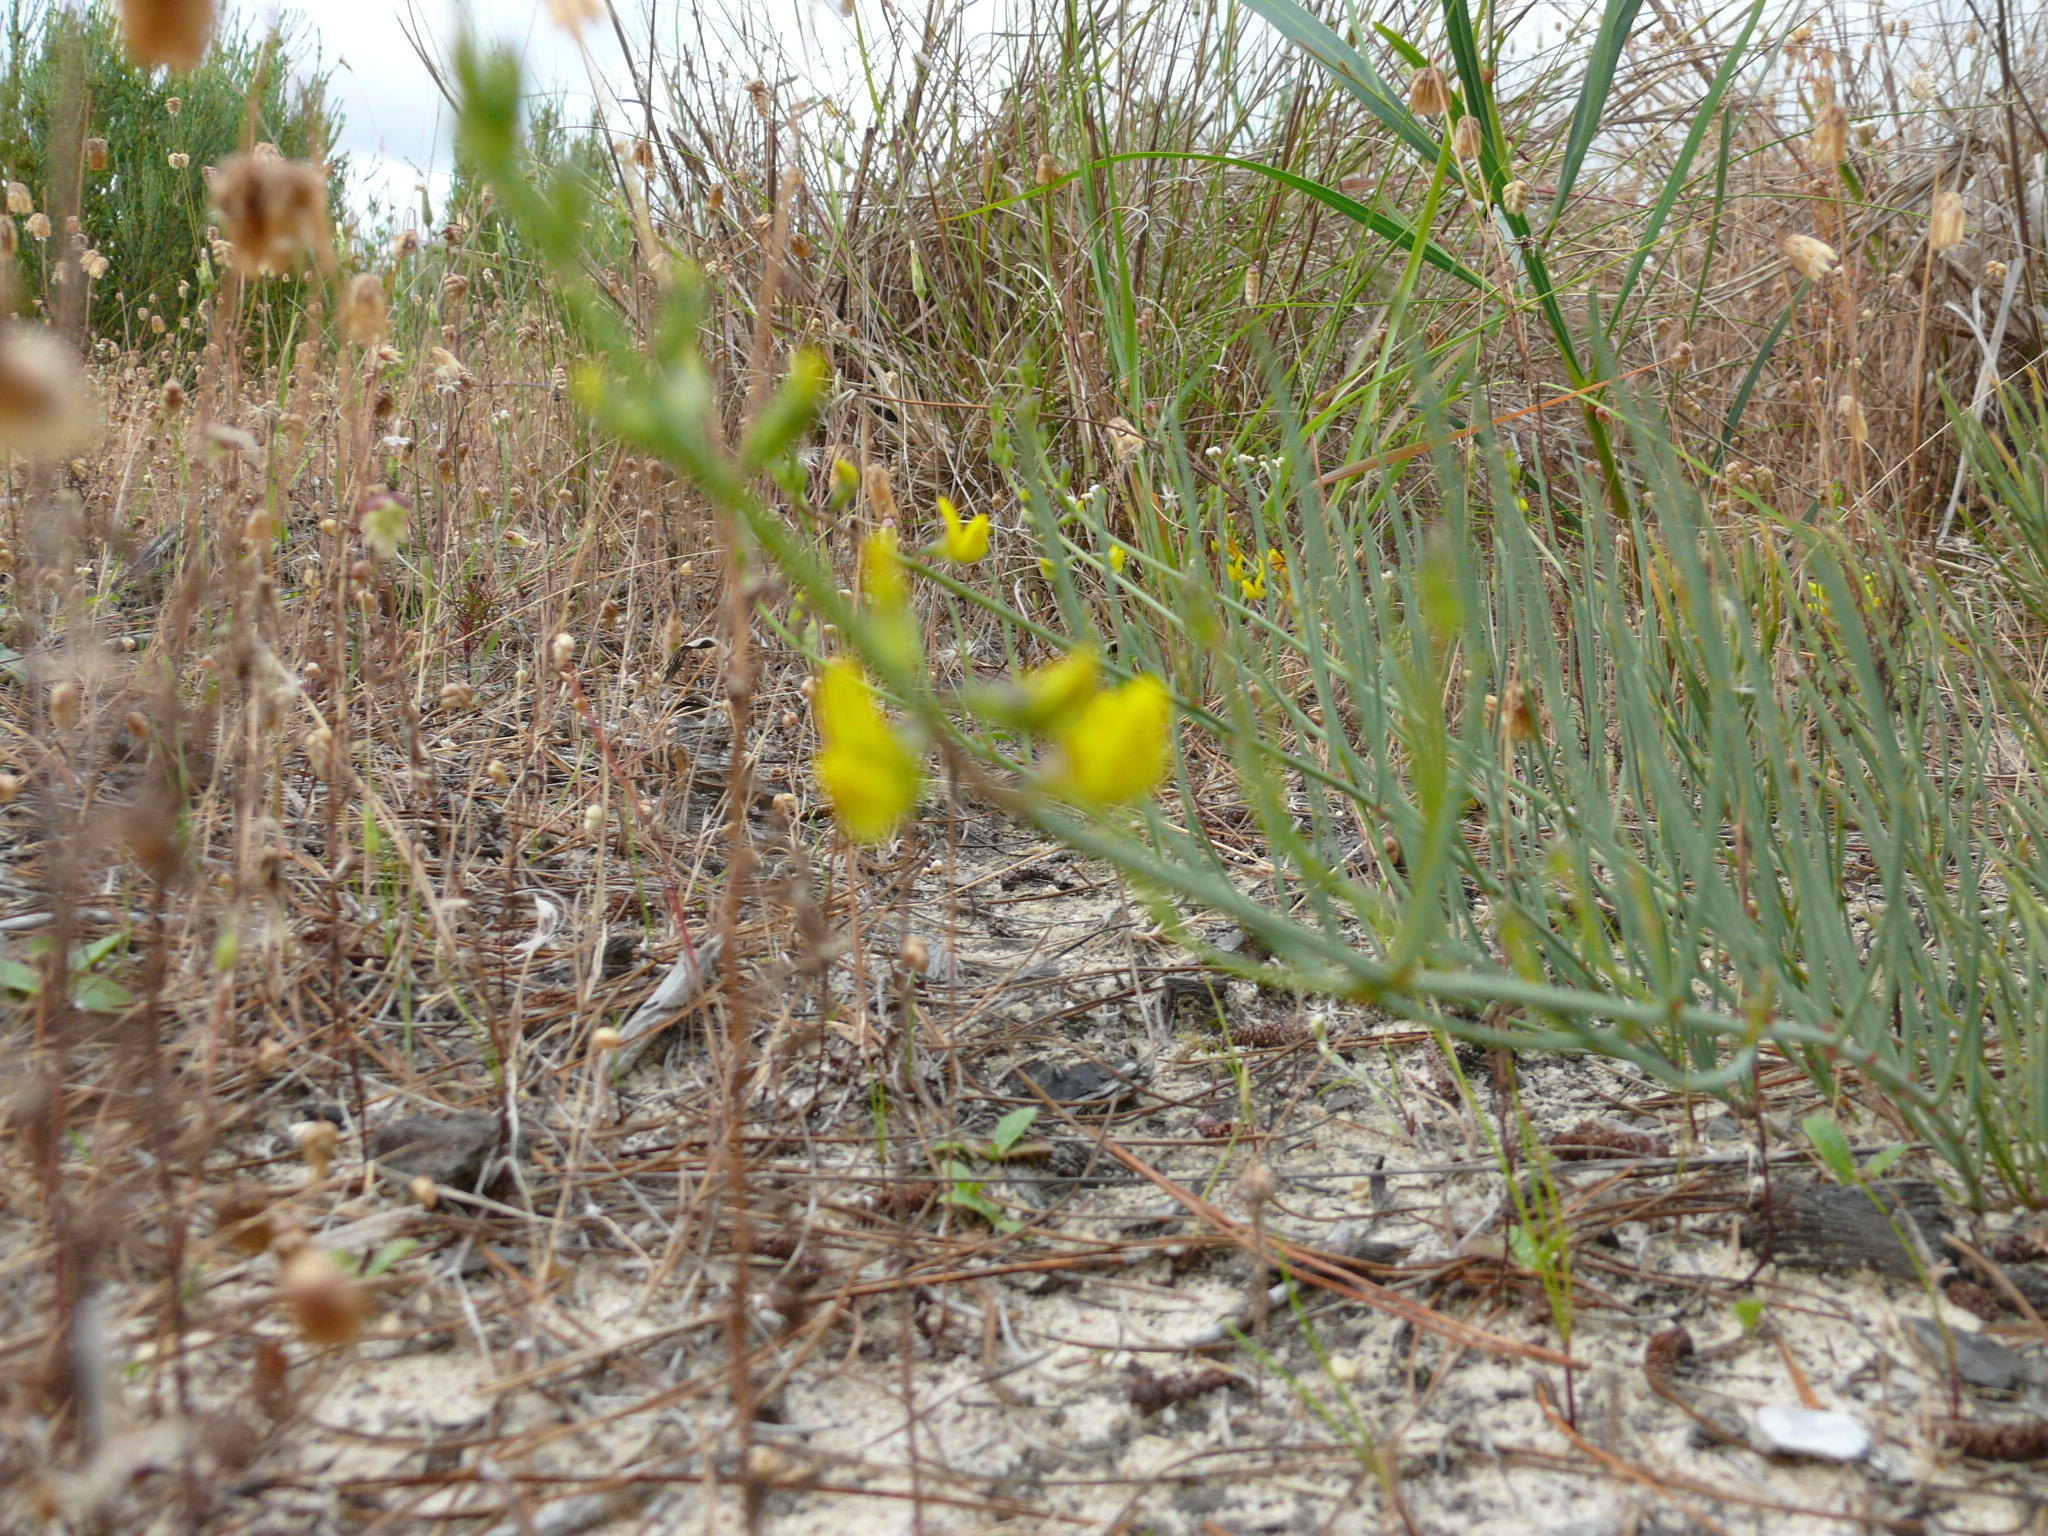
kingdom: Plantae
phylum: Tracheophyta
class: Magnoliopsida
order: Fabales
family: Fabaceae
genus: Lebeckia
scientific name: Lebeckia contaminata
